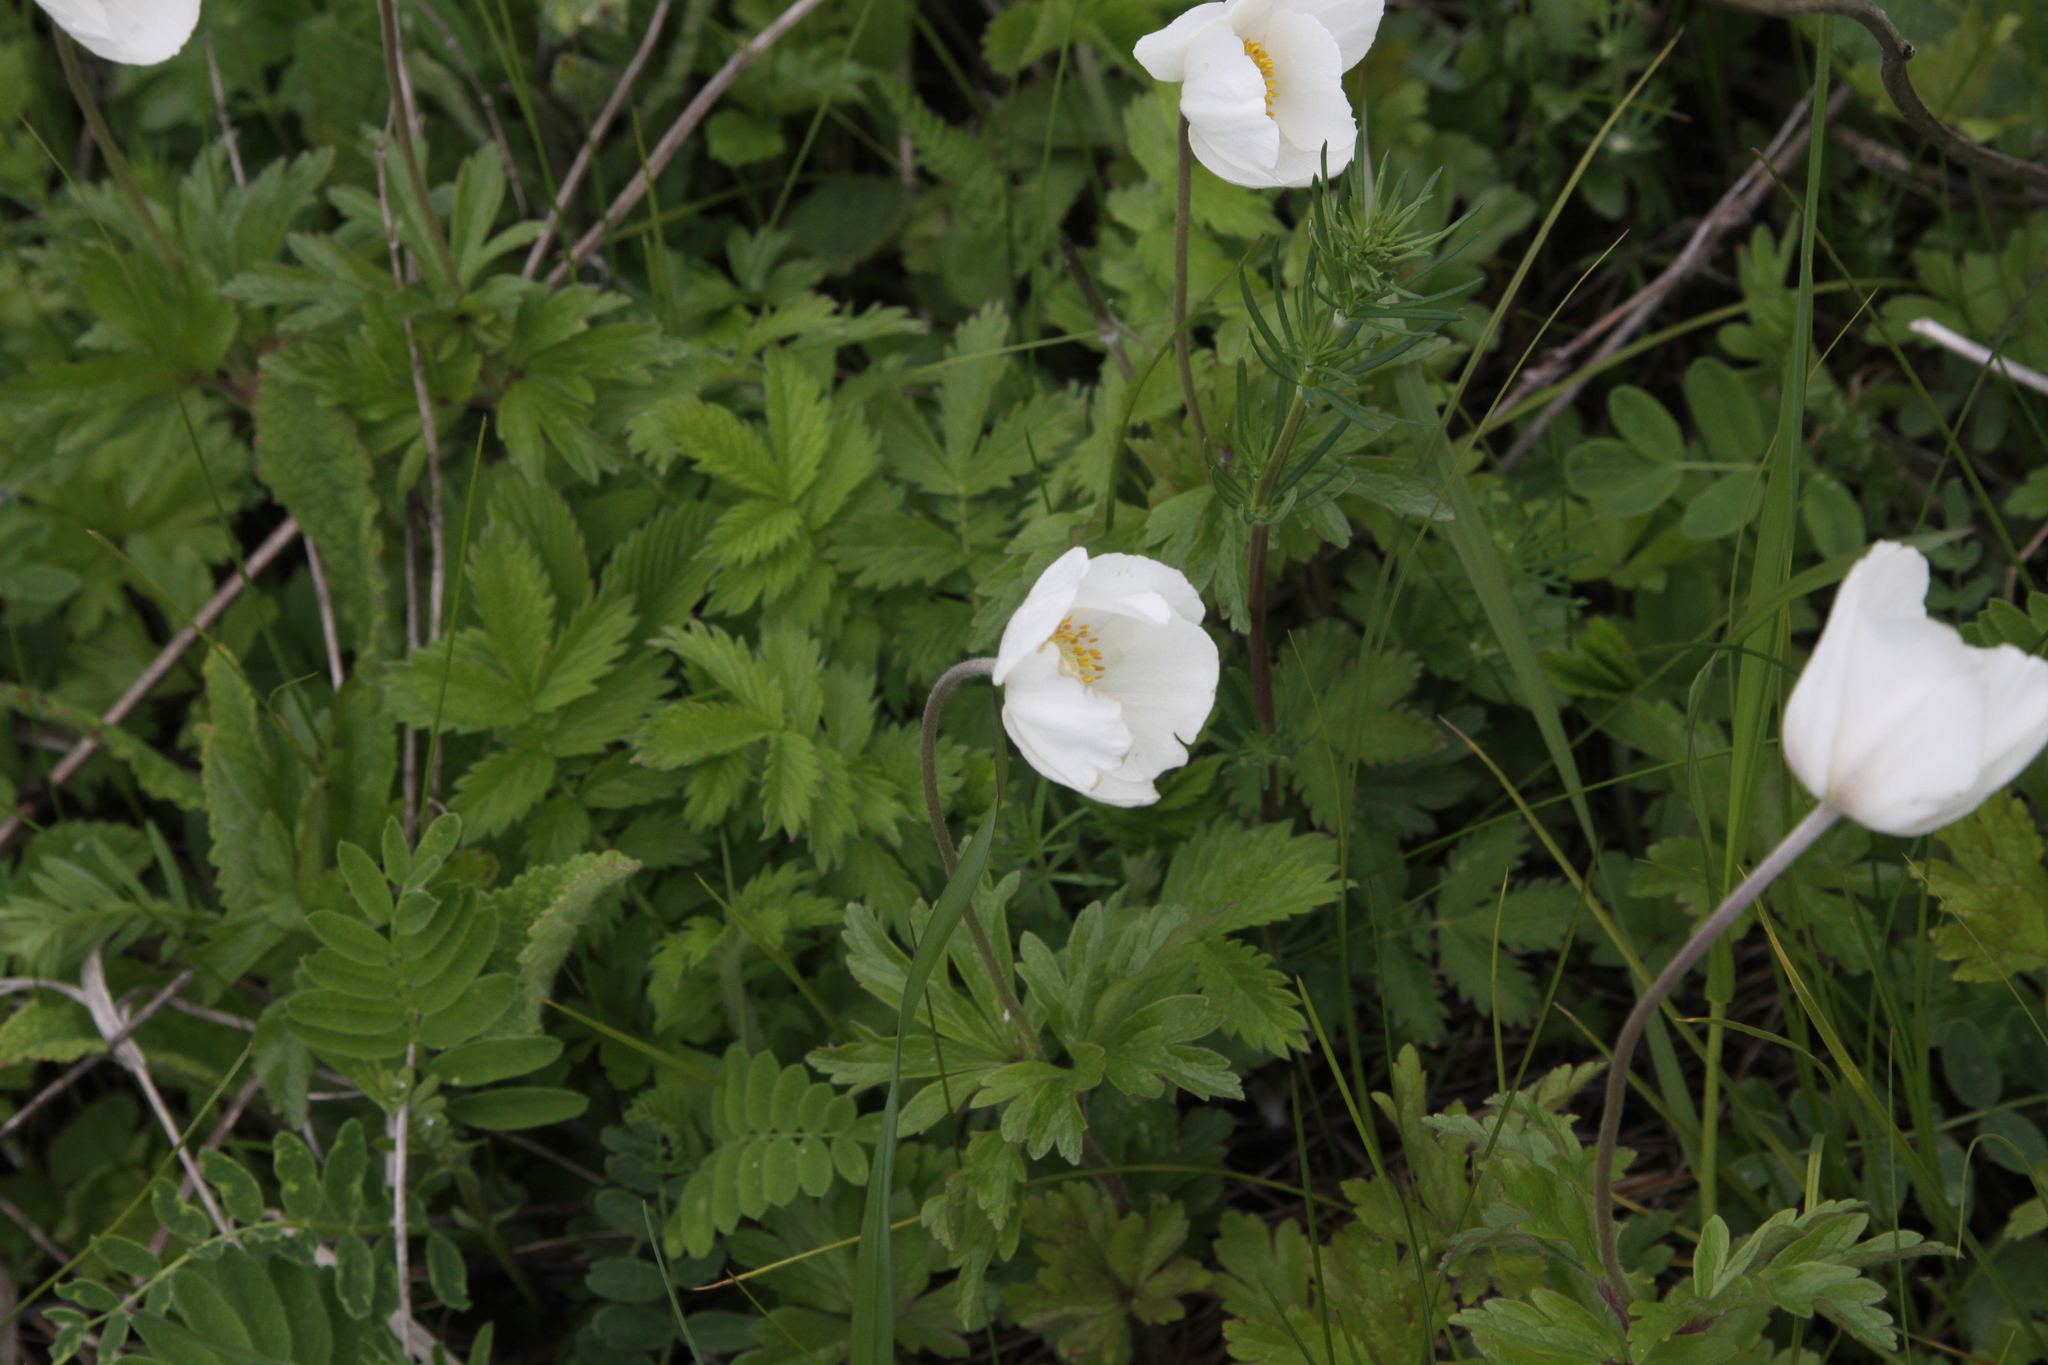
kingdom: Plantae
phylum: Tracheophyta
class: Magnoliopsida
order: Ranunculales
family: Ranunculaceae
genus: Anemone
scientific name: Anemone sylvestris
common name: Snowdrop anemone
